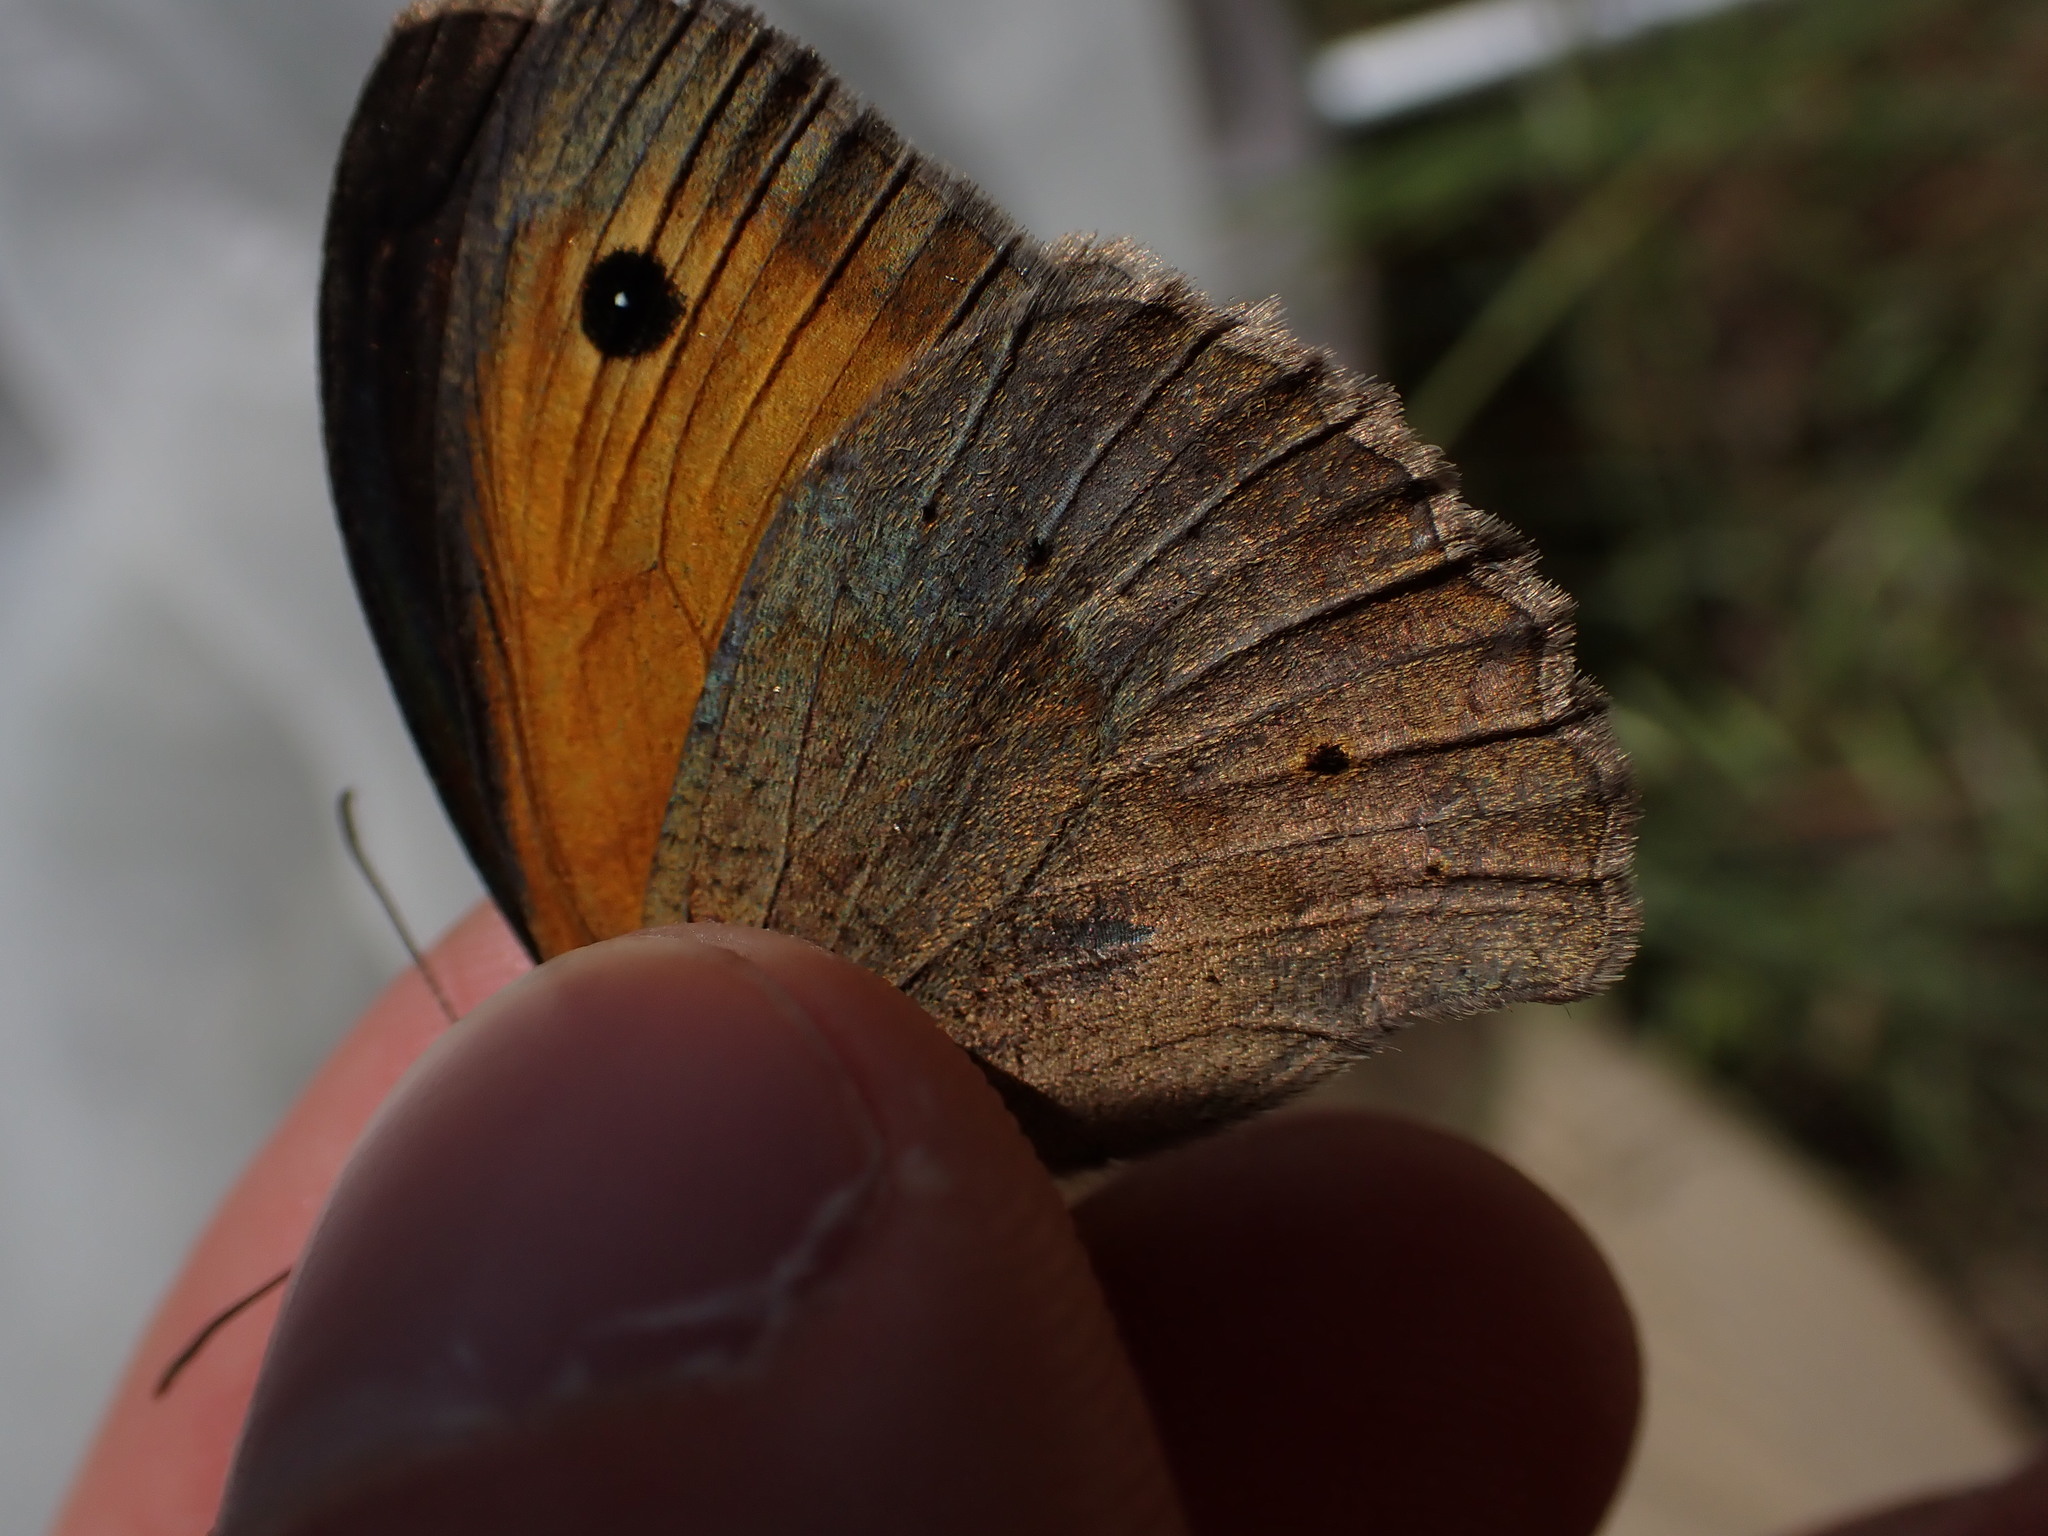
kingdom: Animalia
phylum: Arthropoda
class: Insecta
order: Lepidoptera
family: Nymphalidae
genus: Maniola
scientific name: Maniola jurtina
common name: Meadow brown
